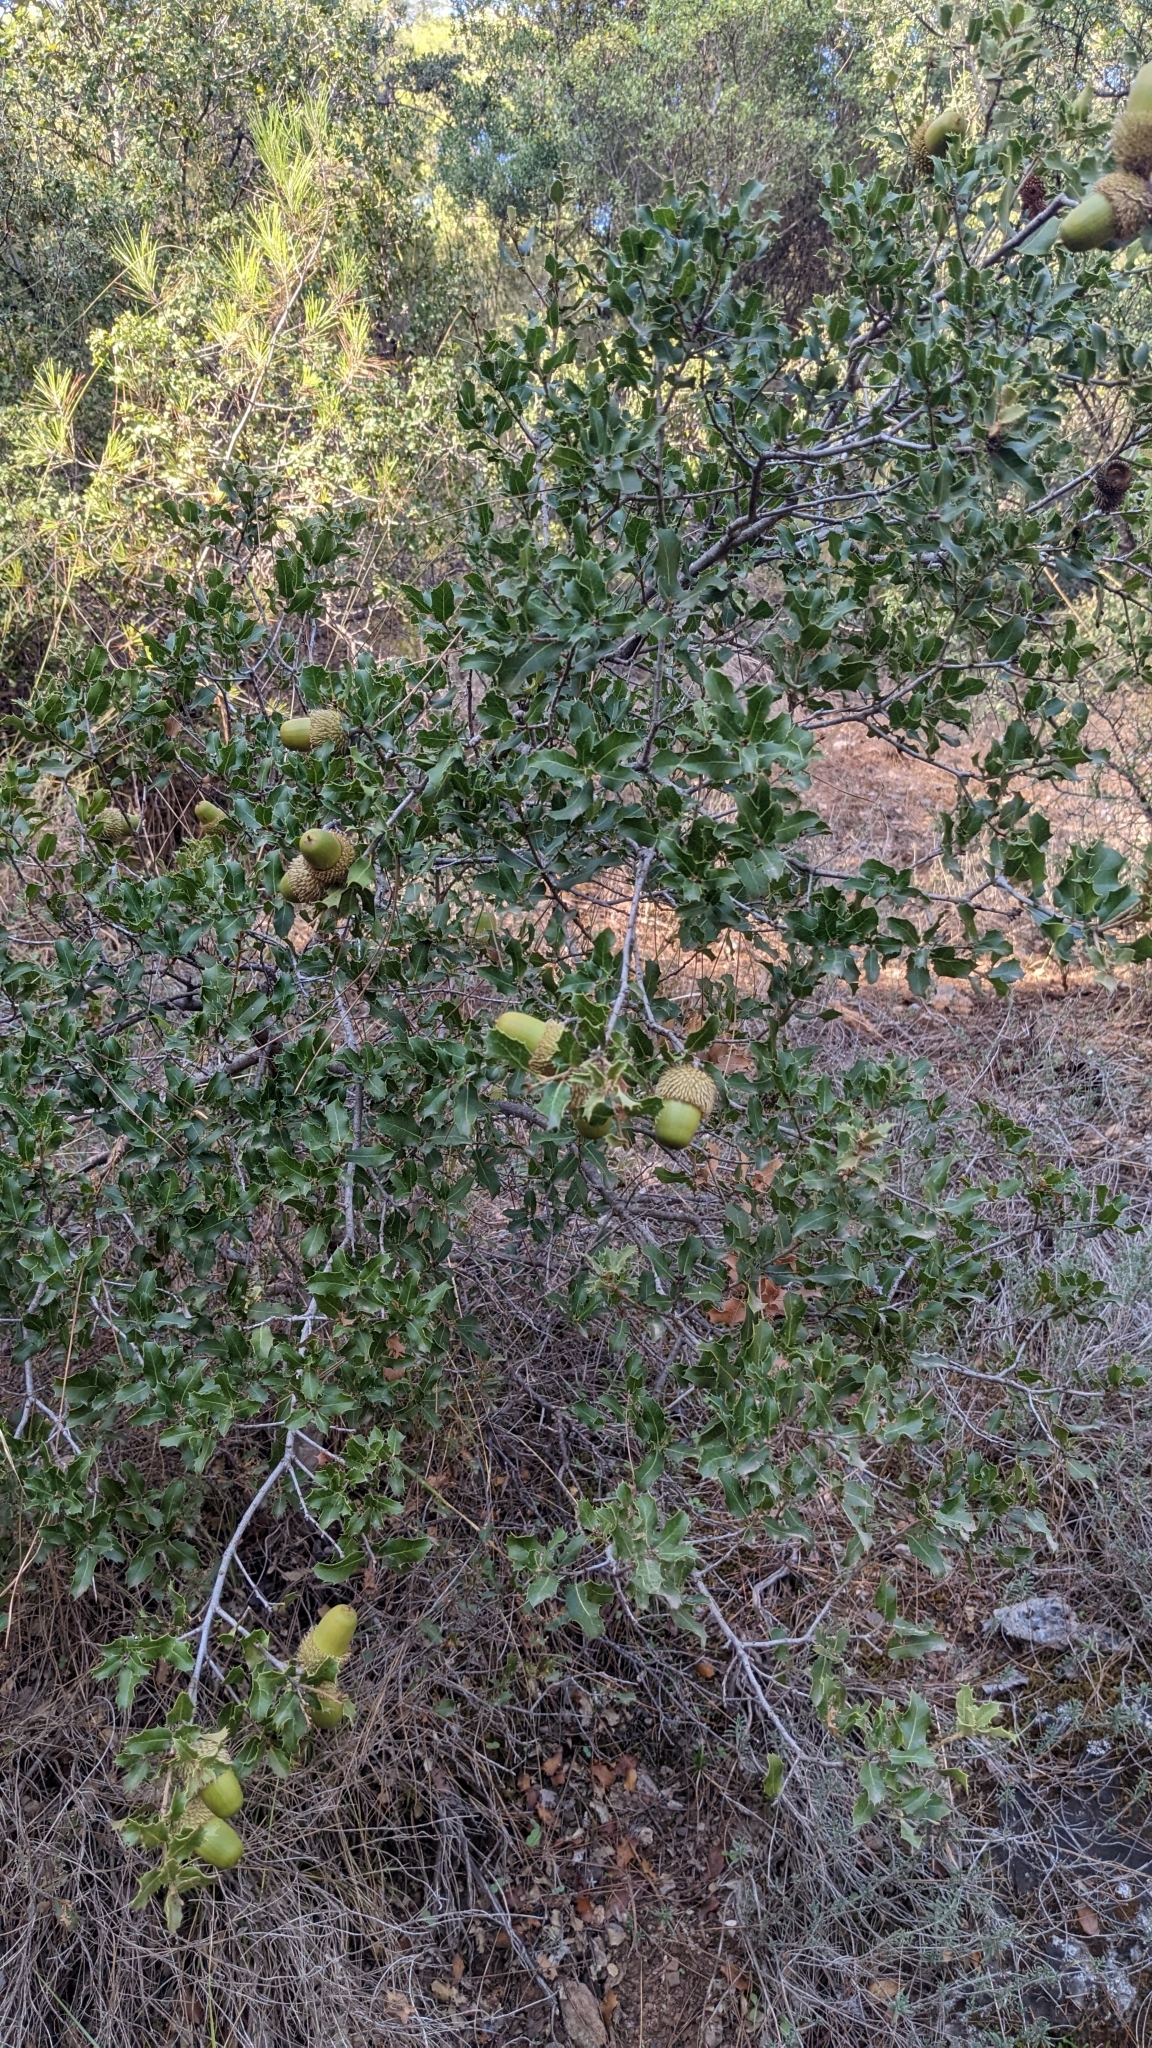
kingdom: Plantae
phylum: Tracheophyta
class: Magnoliopsida
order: Fagales
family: Fagaceae
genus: Quercus
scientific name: Quercus coccifera
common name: Kermes oak
